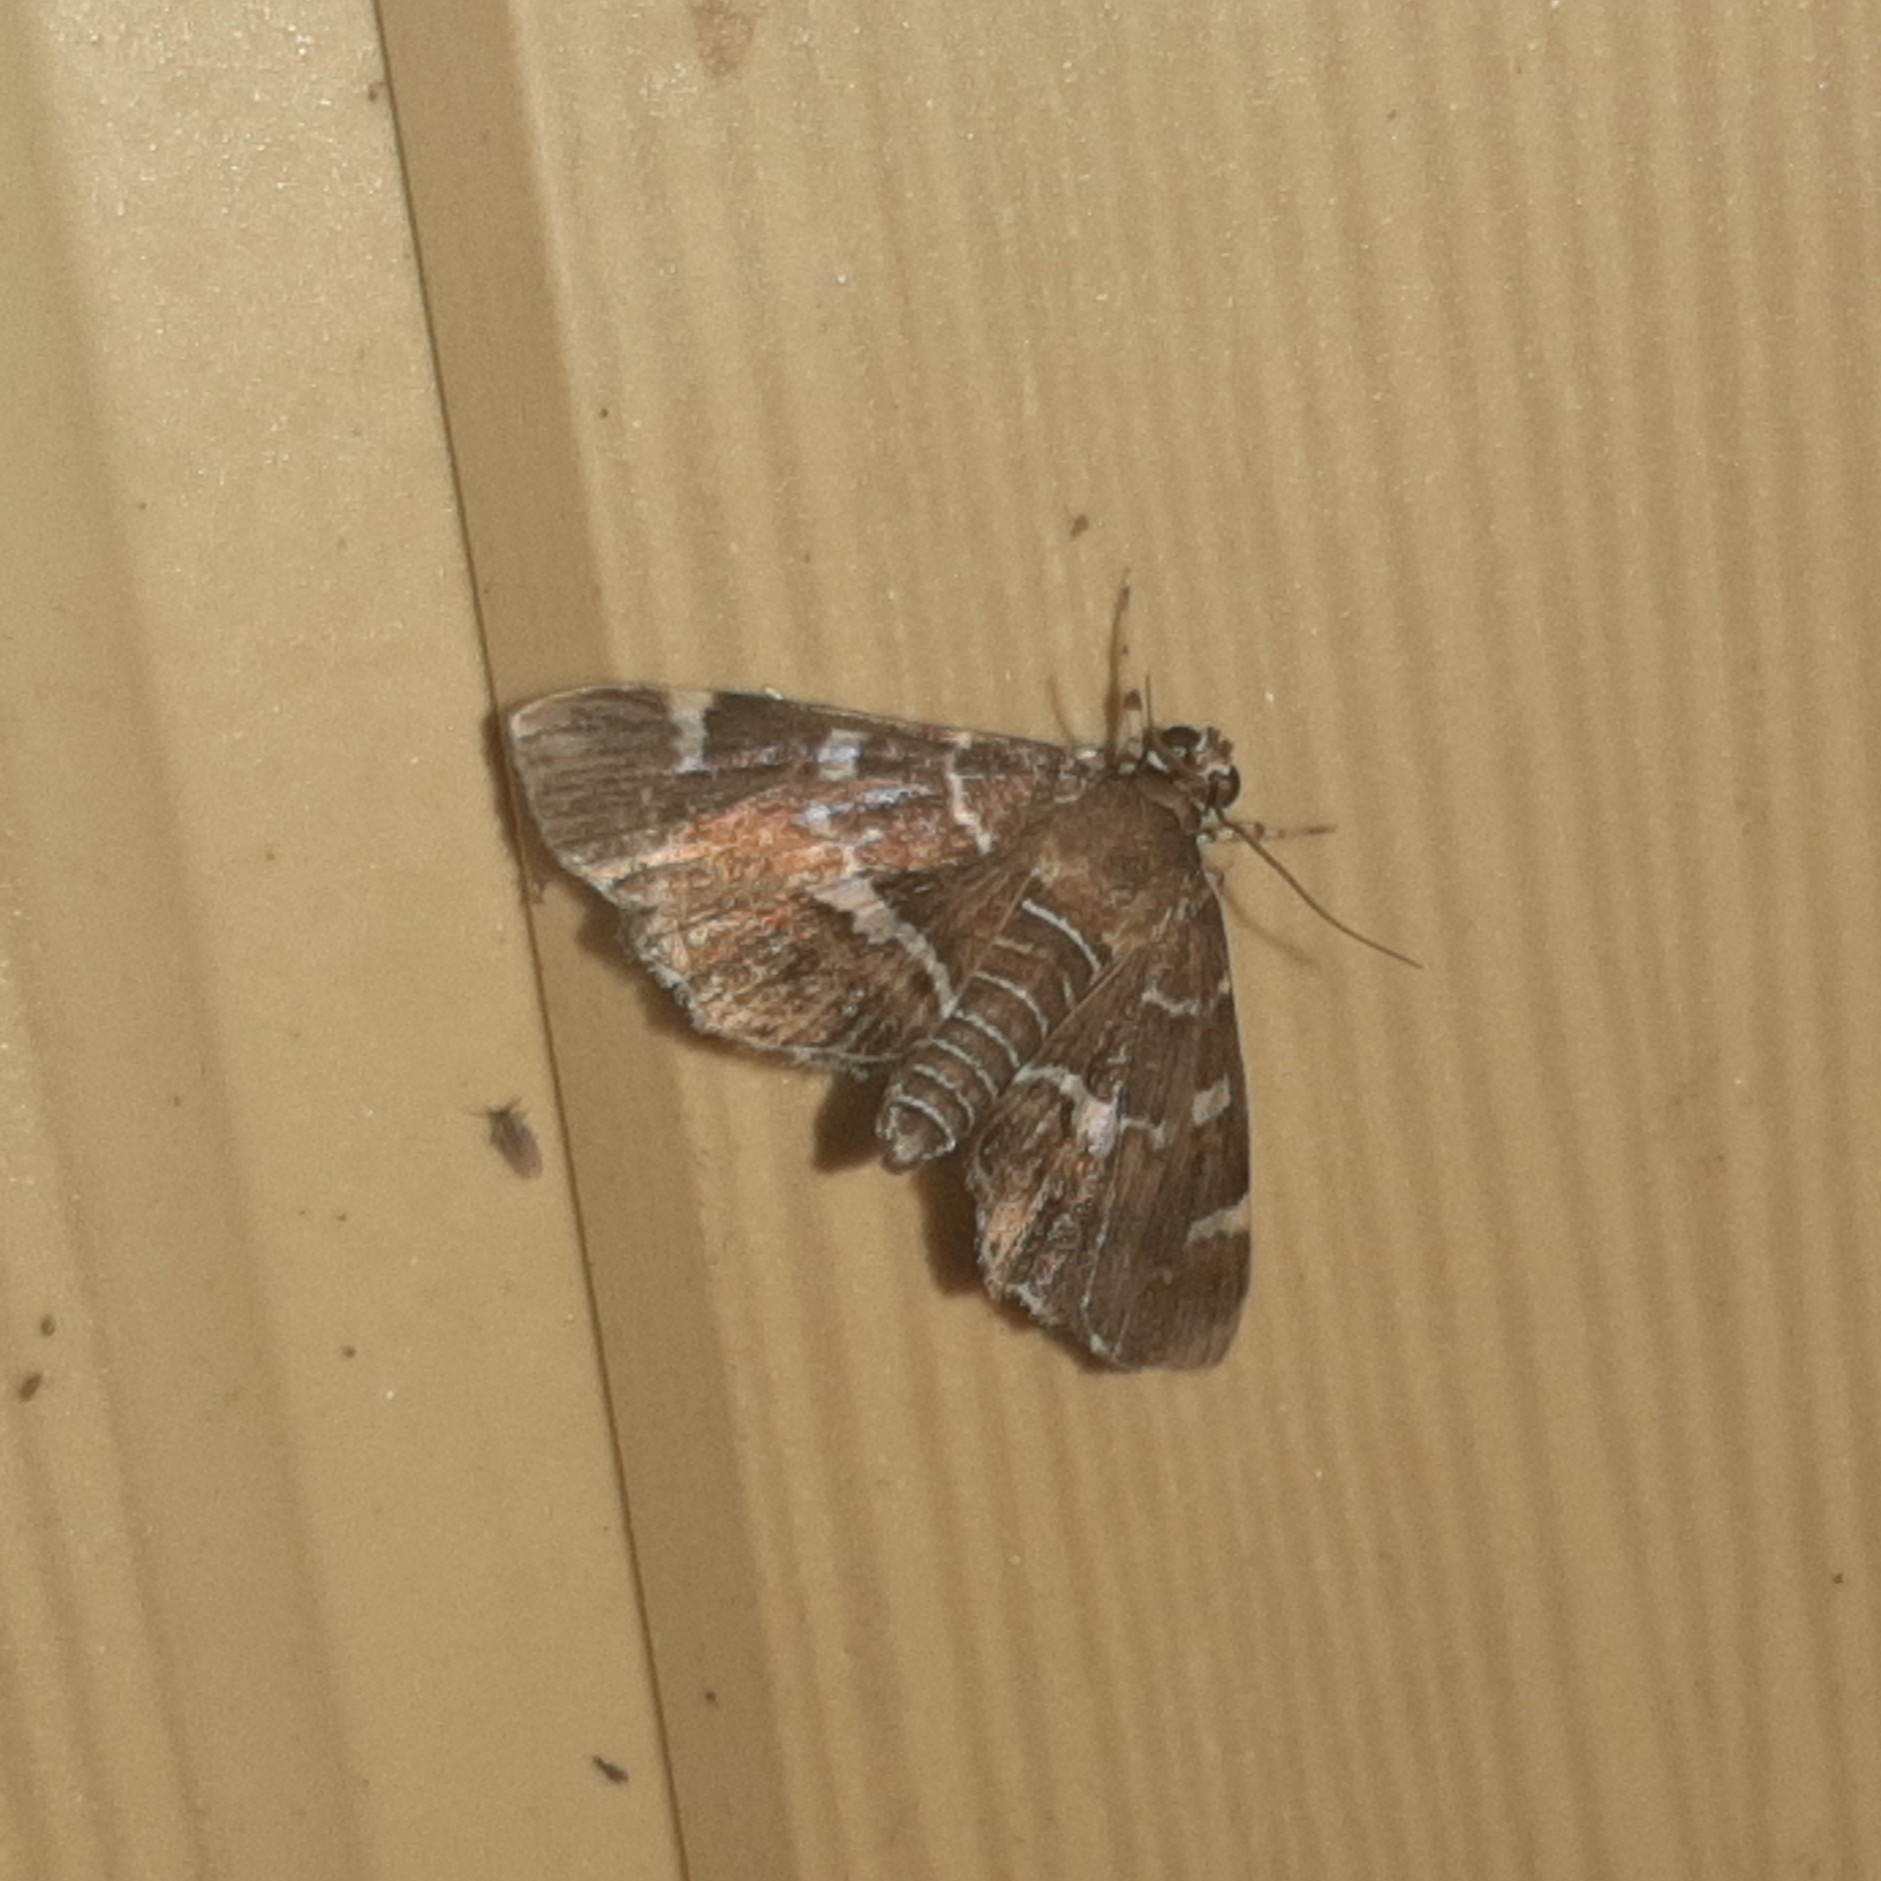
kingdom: Animalia
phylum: Arthropoda
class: Insecta
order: Lepidoptera
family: Crambidae
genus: Hymenia
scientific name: Hymenia perspectalis
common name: Spotted beet webworm
